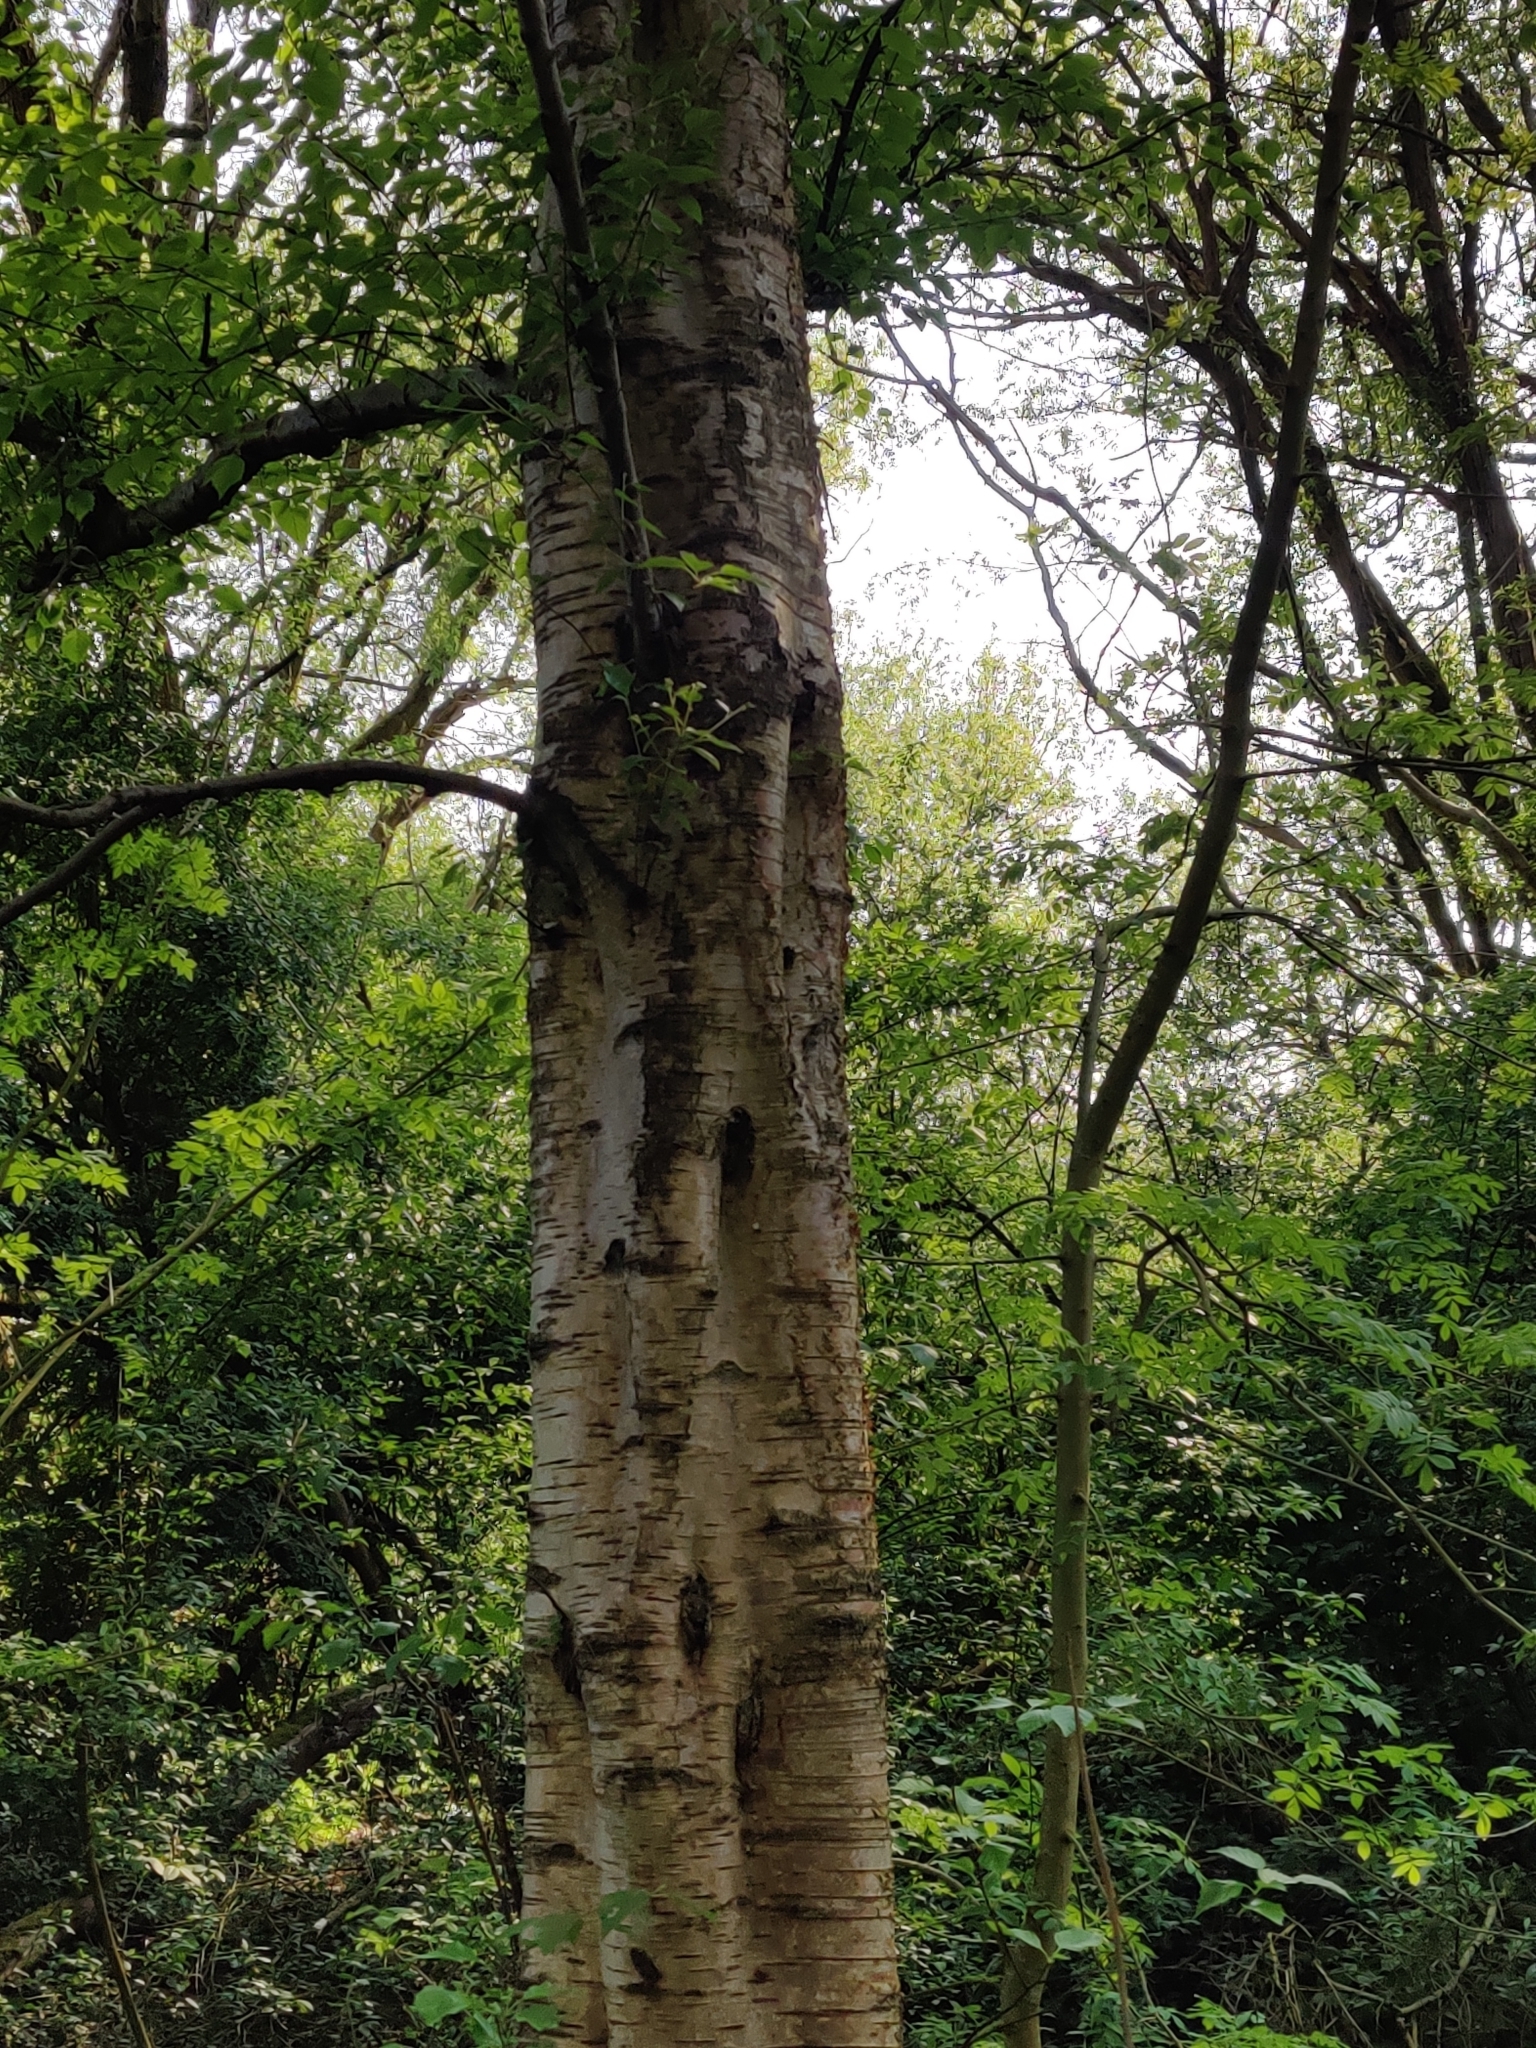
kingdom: Plantae
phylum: Tracheophyta
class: Magnoliopsida
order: Fagales
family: Betulaceae
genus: Betula
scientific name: Betula pendula
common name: Silver birch
